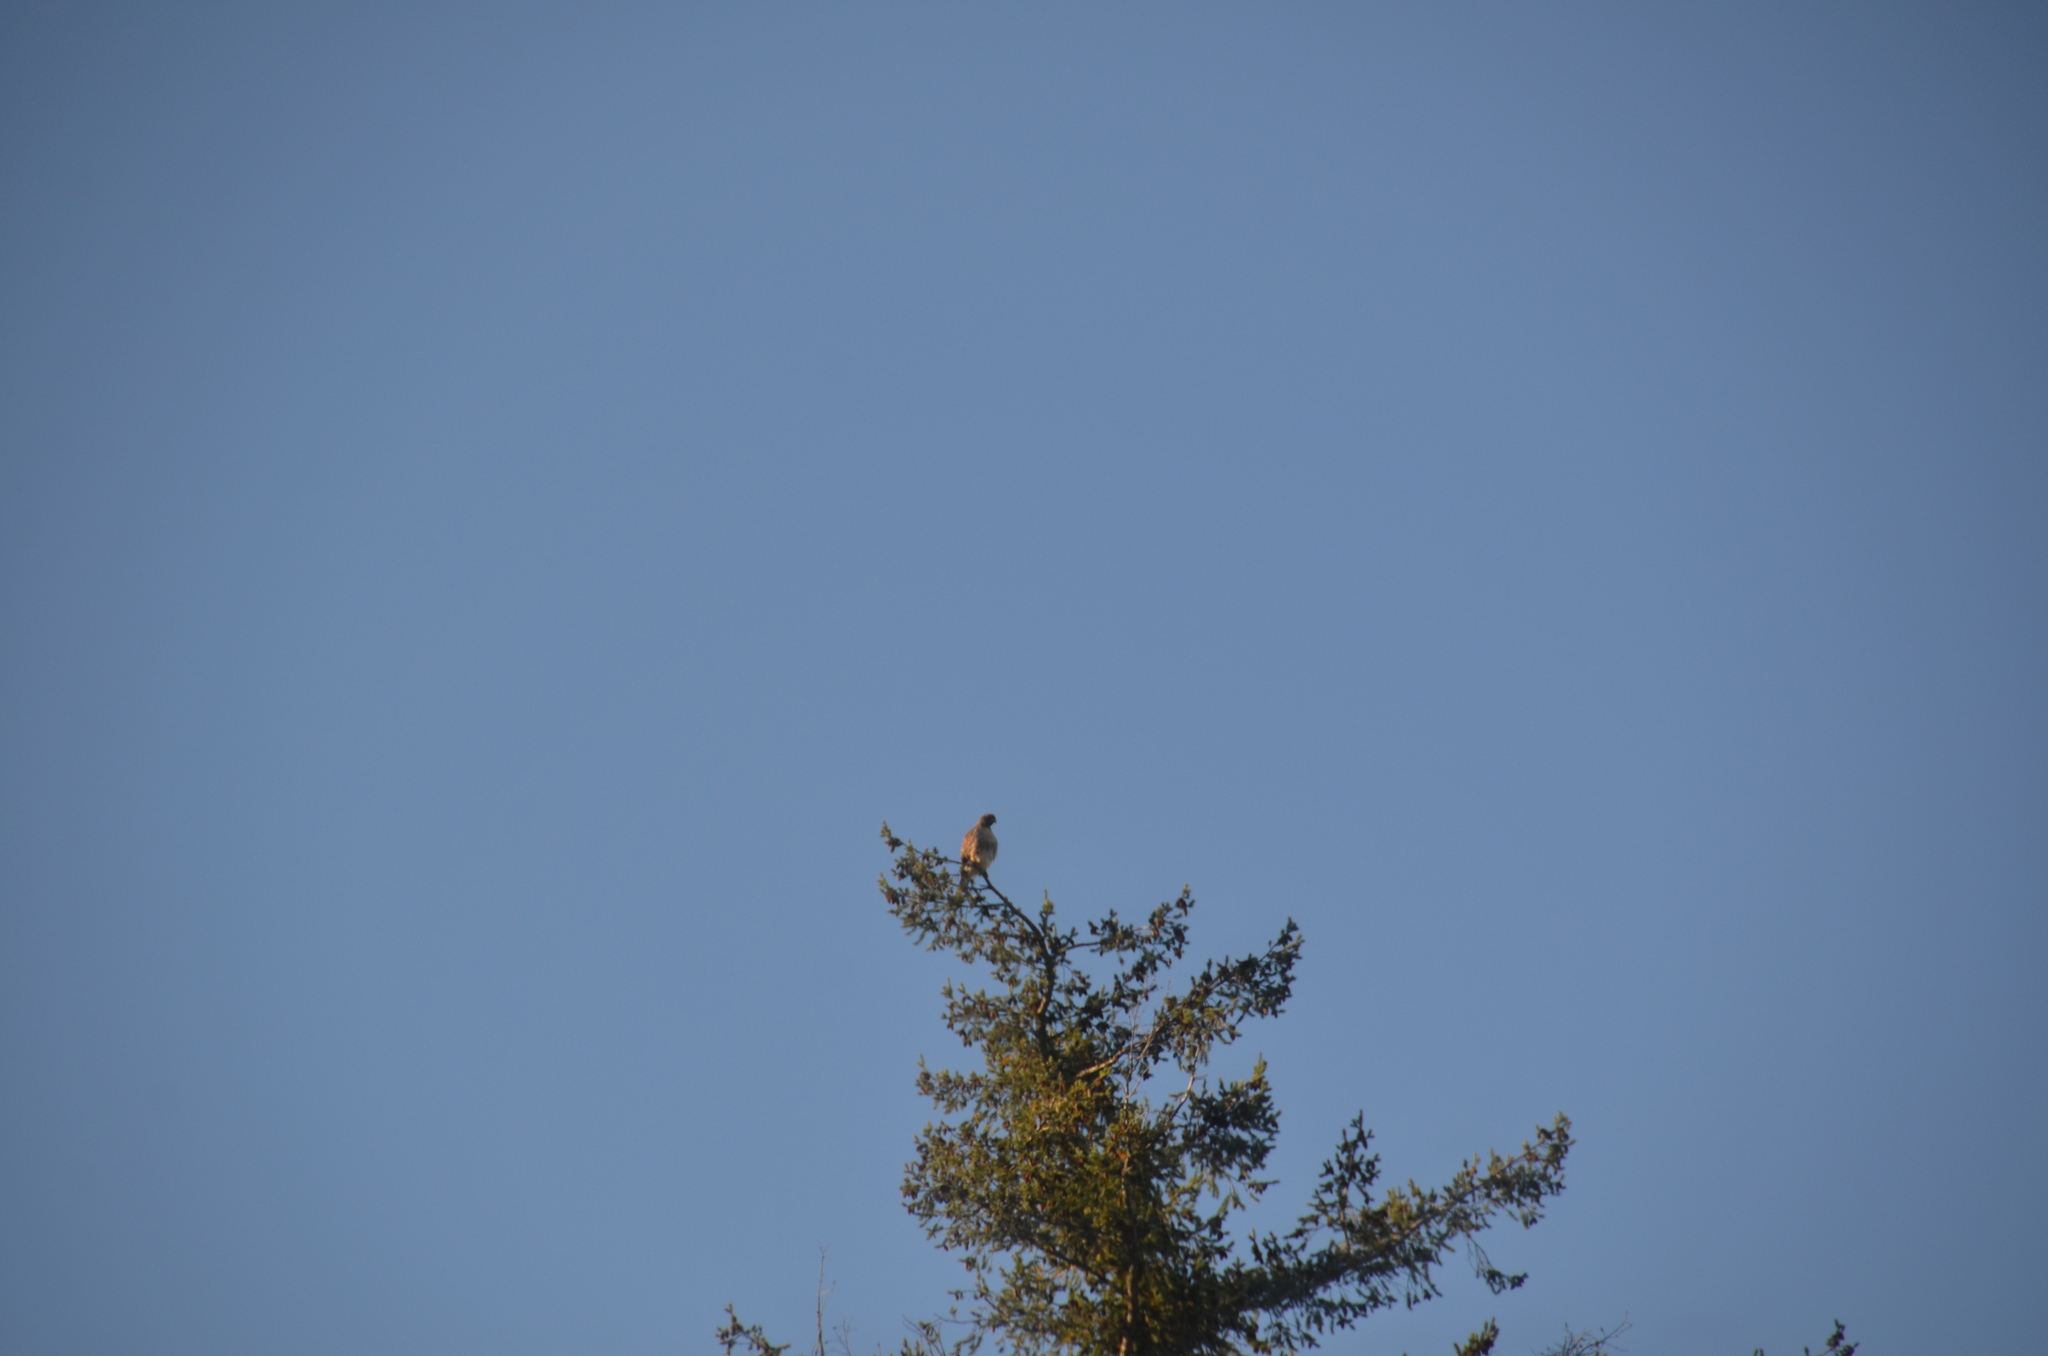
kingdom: Animalia
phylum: Chordata
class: Aves
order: Accipitriformes
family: Accipitridae
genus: Buteo
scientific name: Buteo jamaicensis
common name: Red-tailed hawk
